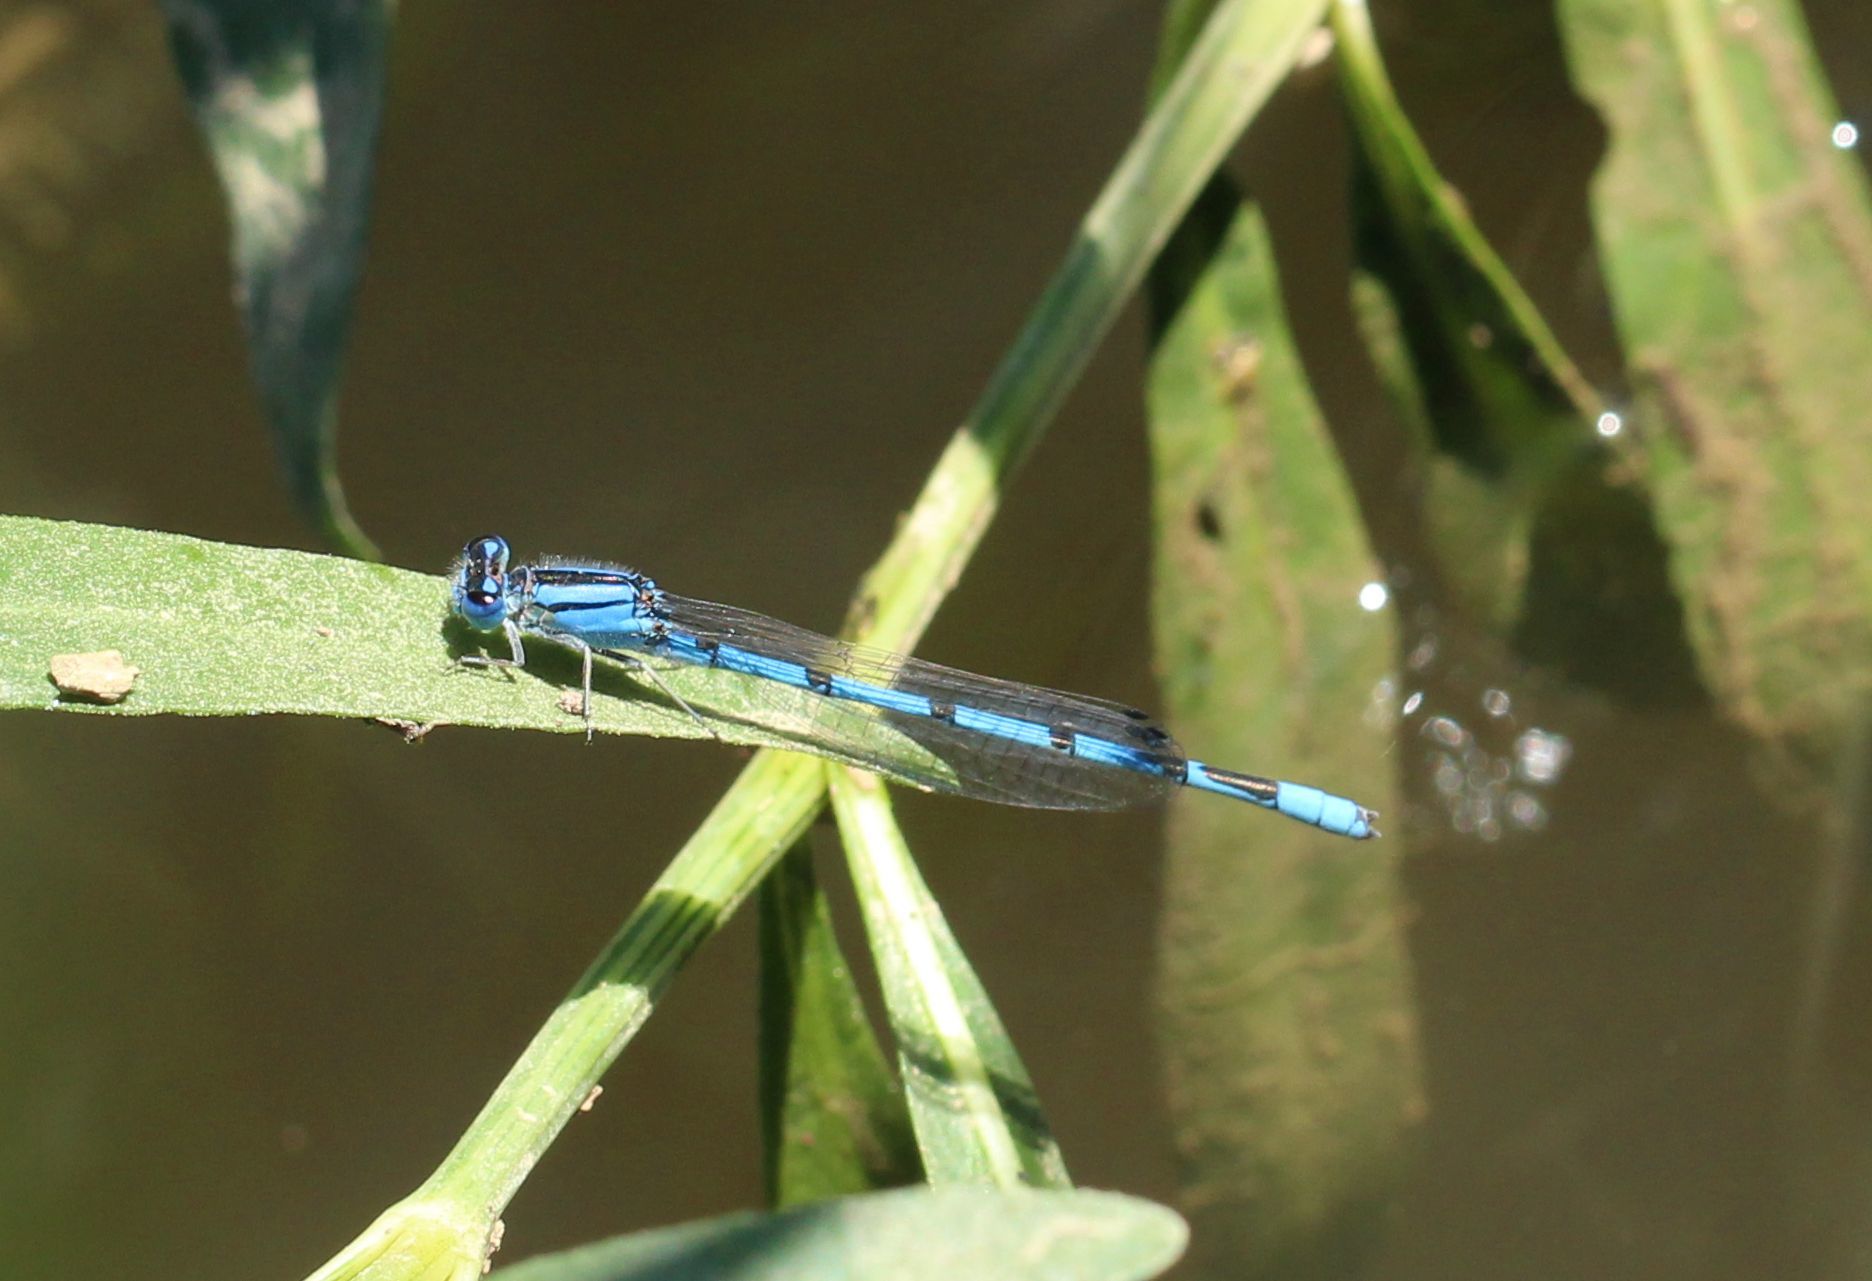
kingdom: Animalia
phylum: Arthropoda
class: Insecta
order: Odonata
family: Coenagrionidae
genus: Enallagma
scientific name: Enallagma civile
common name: Damselfly
